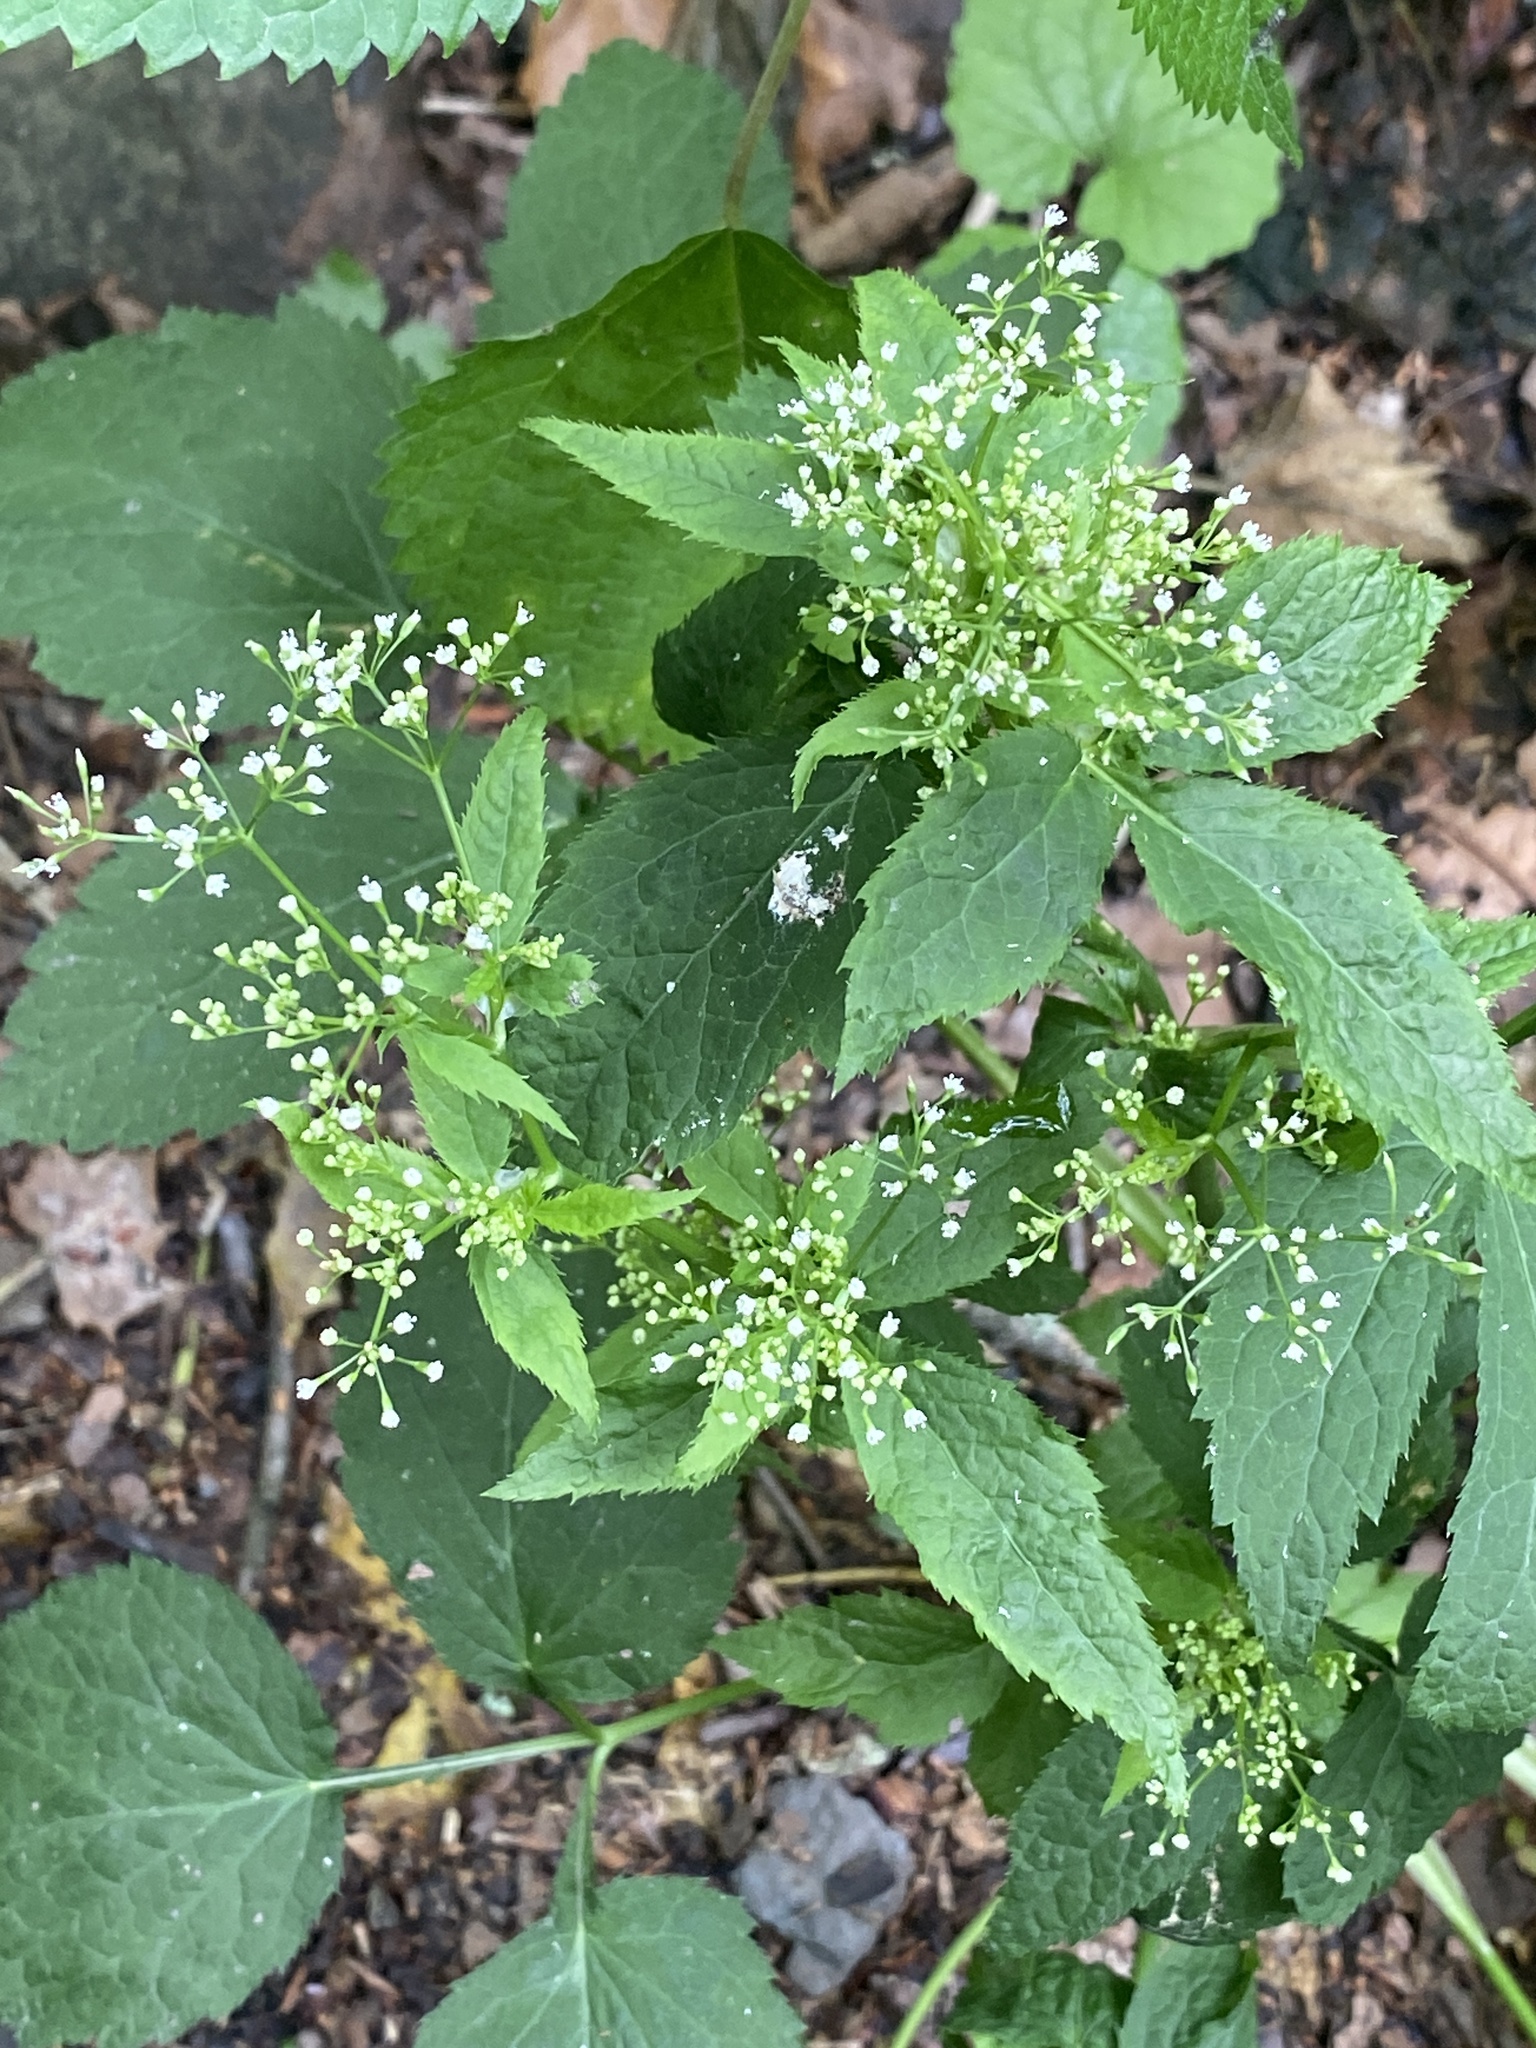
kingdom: Plantae
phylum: Tracheophyta
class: Magnoliopsida
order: Apiales
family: Apiaceae
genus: Cryptotaenia
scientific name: Cryptotaenia canadensis
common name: Honewort
